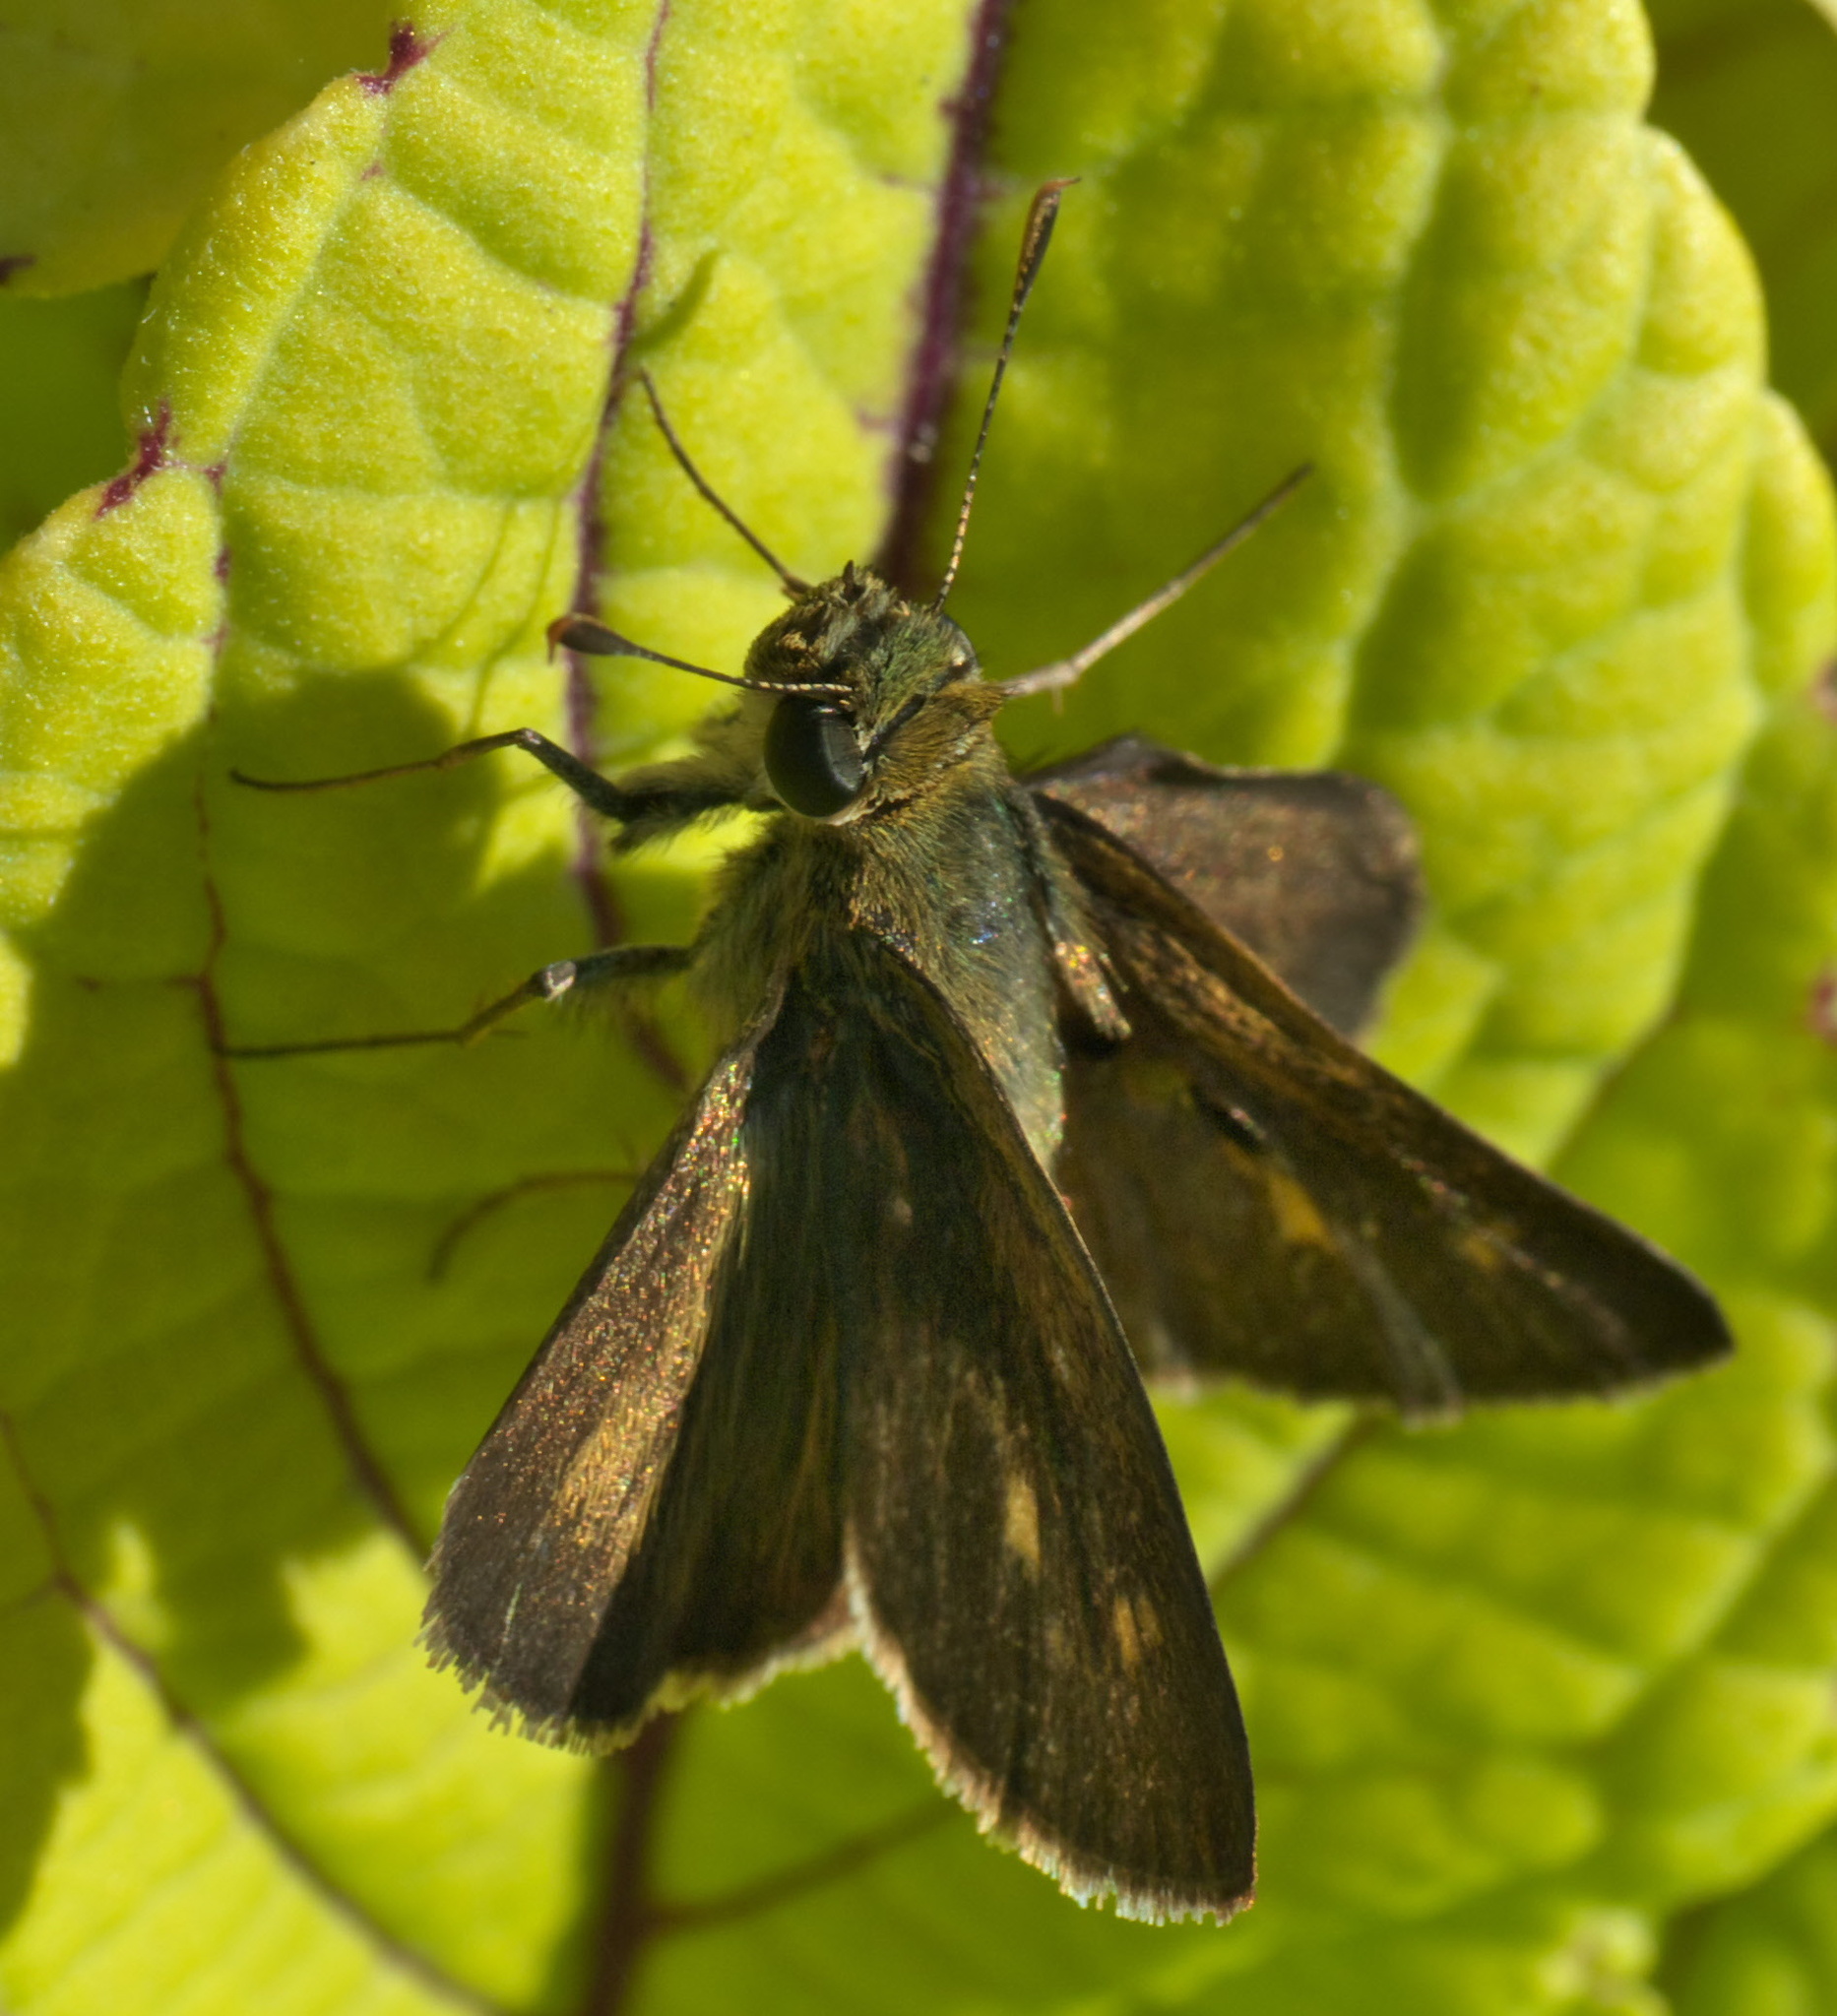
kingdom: Animalia
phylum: Arthropoda
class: Insecta
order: Lepidoptera
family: Hesperiidae
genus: Polites
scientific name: Polites egeremet
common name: Northern broken-dash
